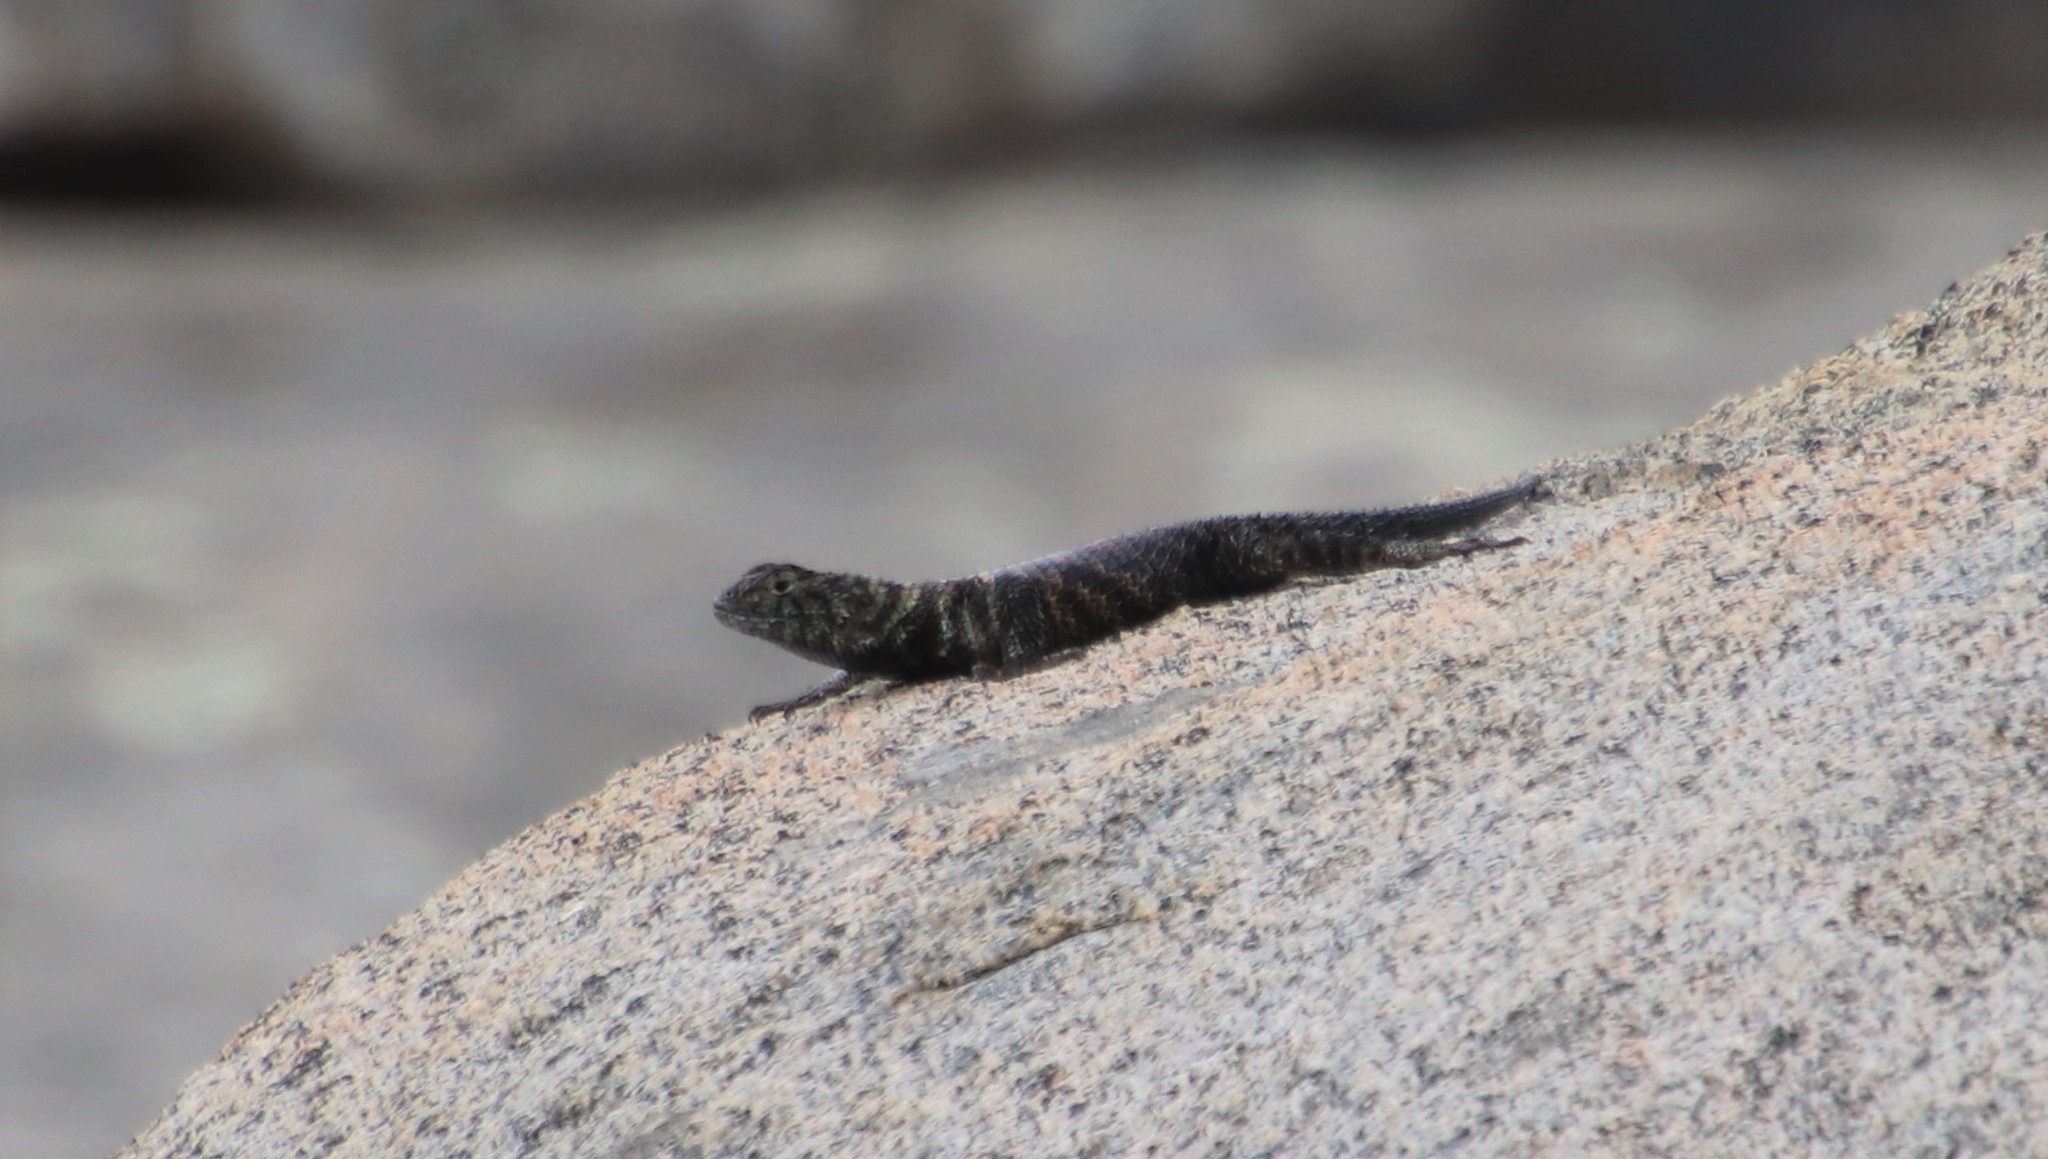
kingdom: Animalia
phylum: Chordata
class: Squamata
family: Phrynosomatidae
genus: Sceloporus
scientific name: Sceloporus orcutti
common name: Granite spiny lizard
